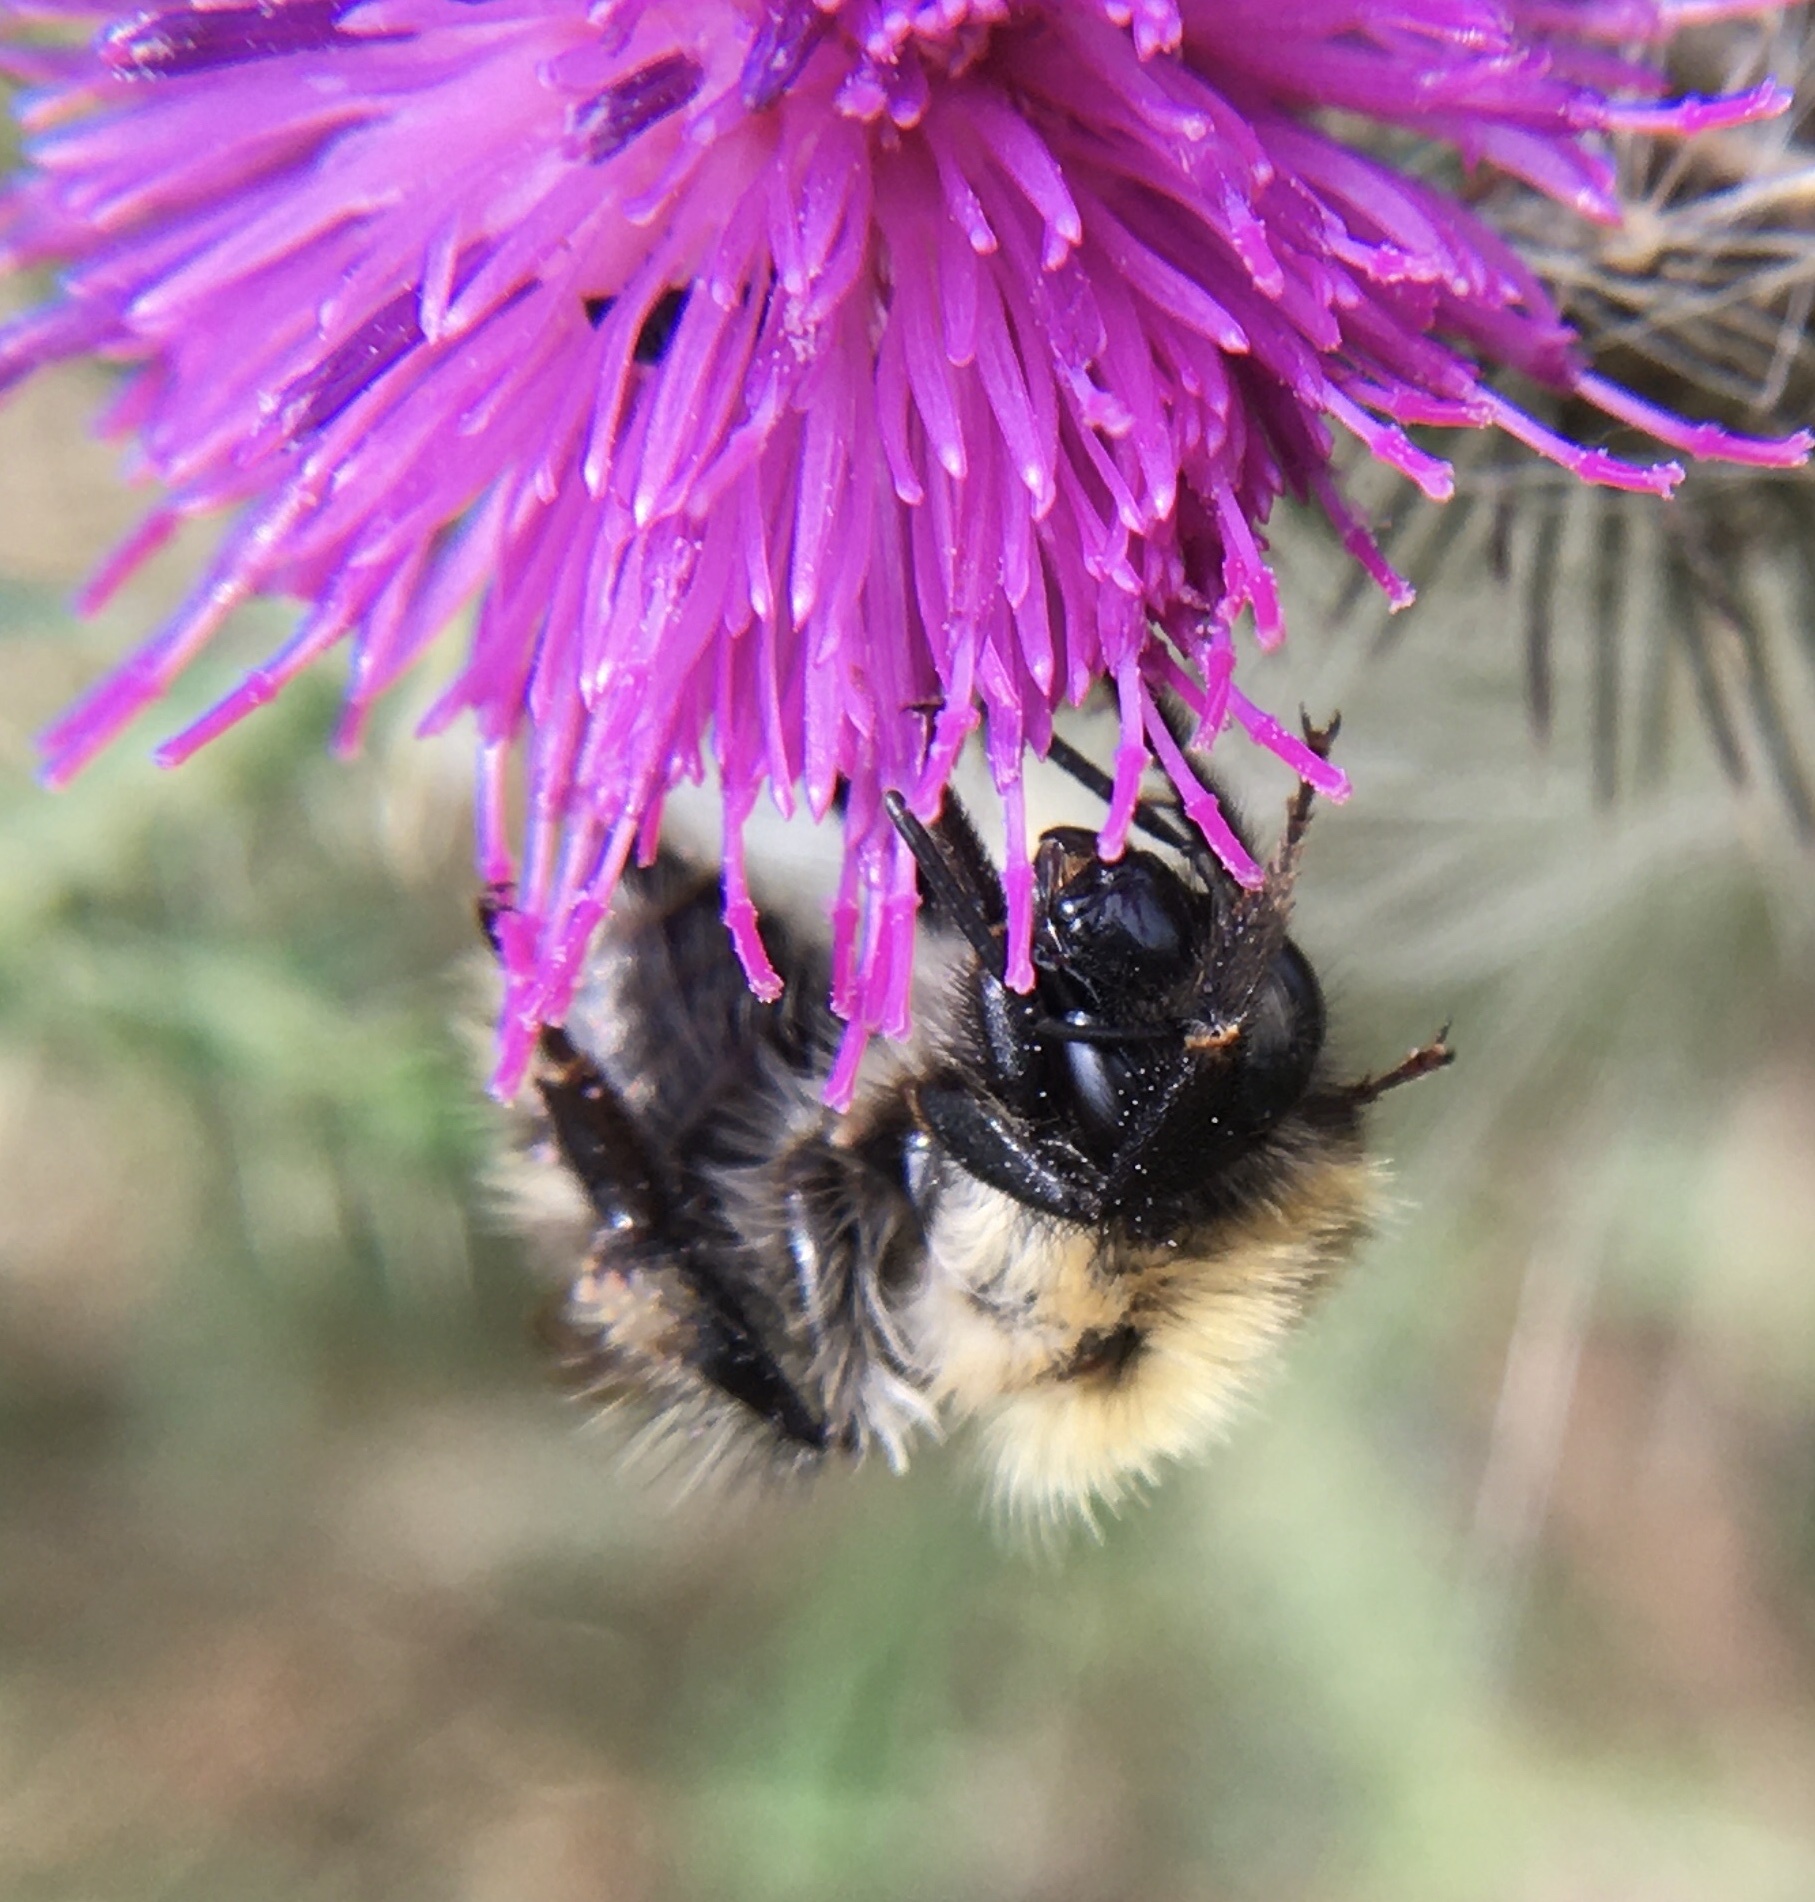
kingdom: Animalia
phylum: Arthropoda
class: Insecta
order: Hymenoptera
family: Apidae
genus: Bombus
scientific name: Bombus pascuorum
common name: Common carder bee
